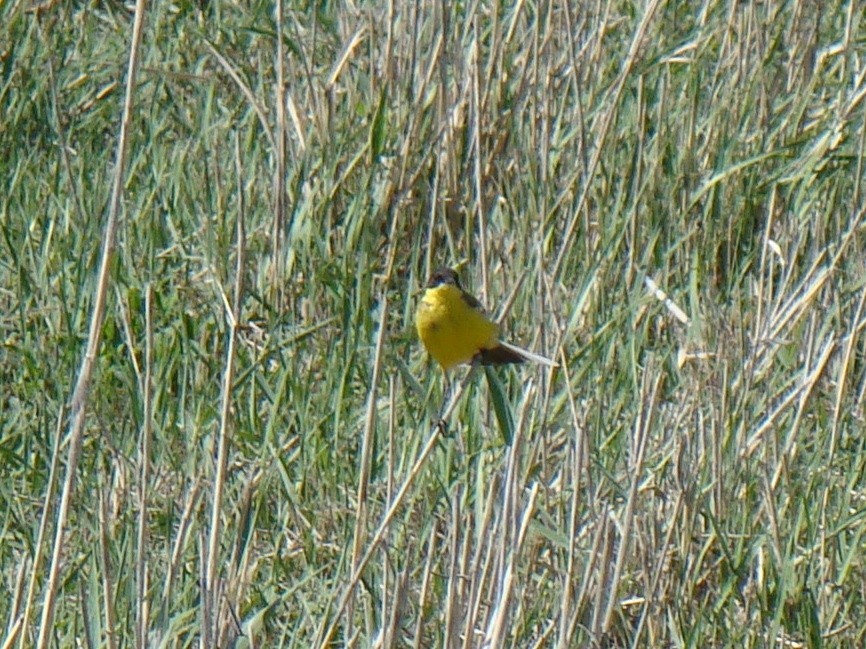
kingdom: Animalia
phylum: Chordata
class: Aves
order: Passeriformes
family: Motacillidae
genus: Motacilla
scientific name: Motacilla flava
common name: Western yellow wagtail
